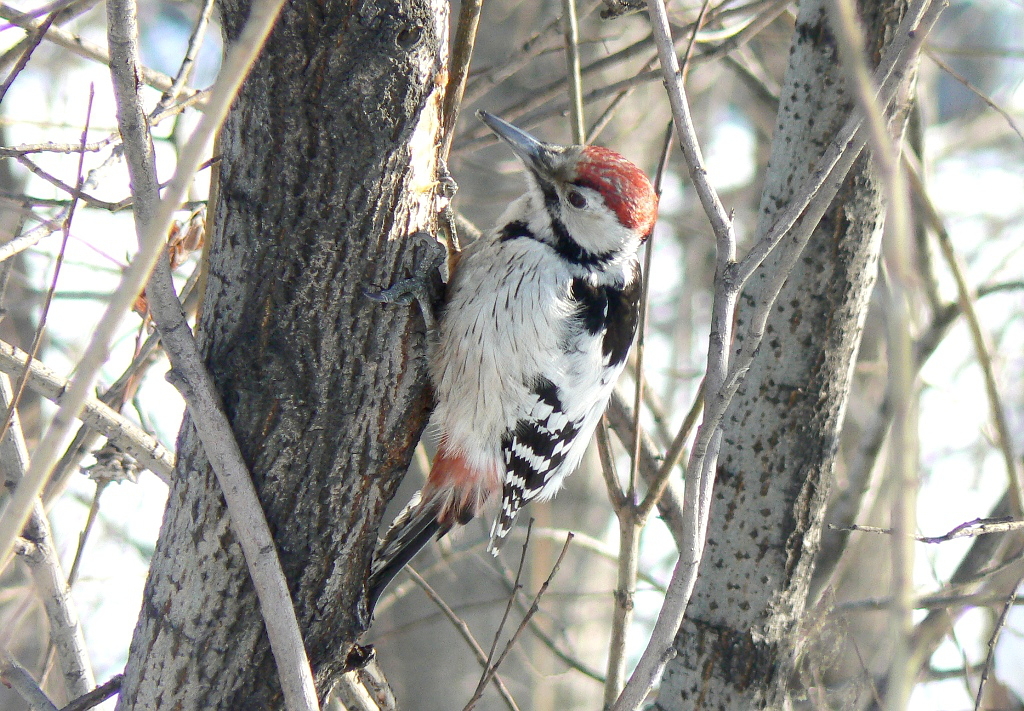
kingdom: Animalia
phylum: Chordata
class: Aves
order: Piciformes
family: Picidae
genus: Dendrocopos
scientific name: Dendrocopos leucotos
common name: White-backed woodpecker
